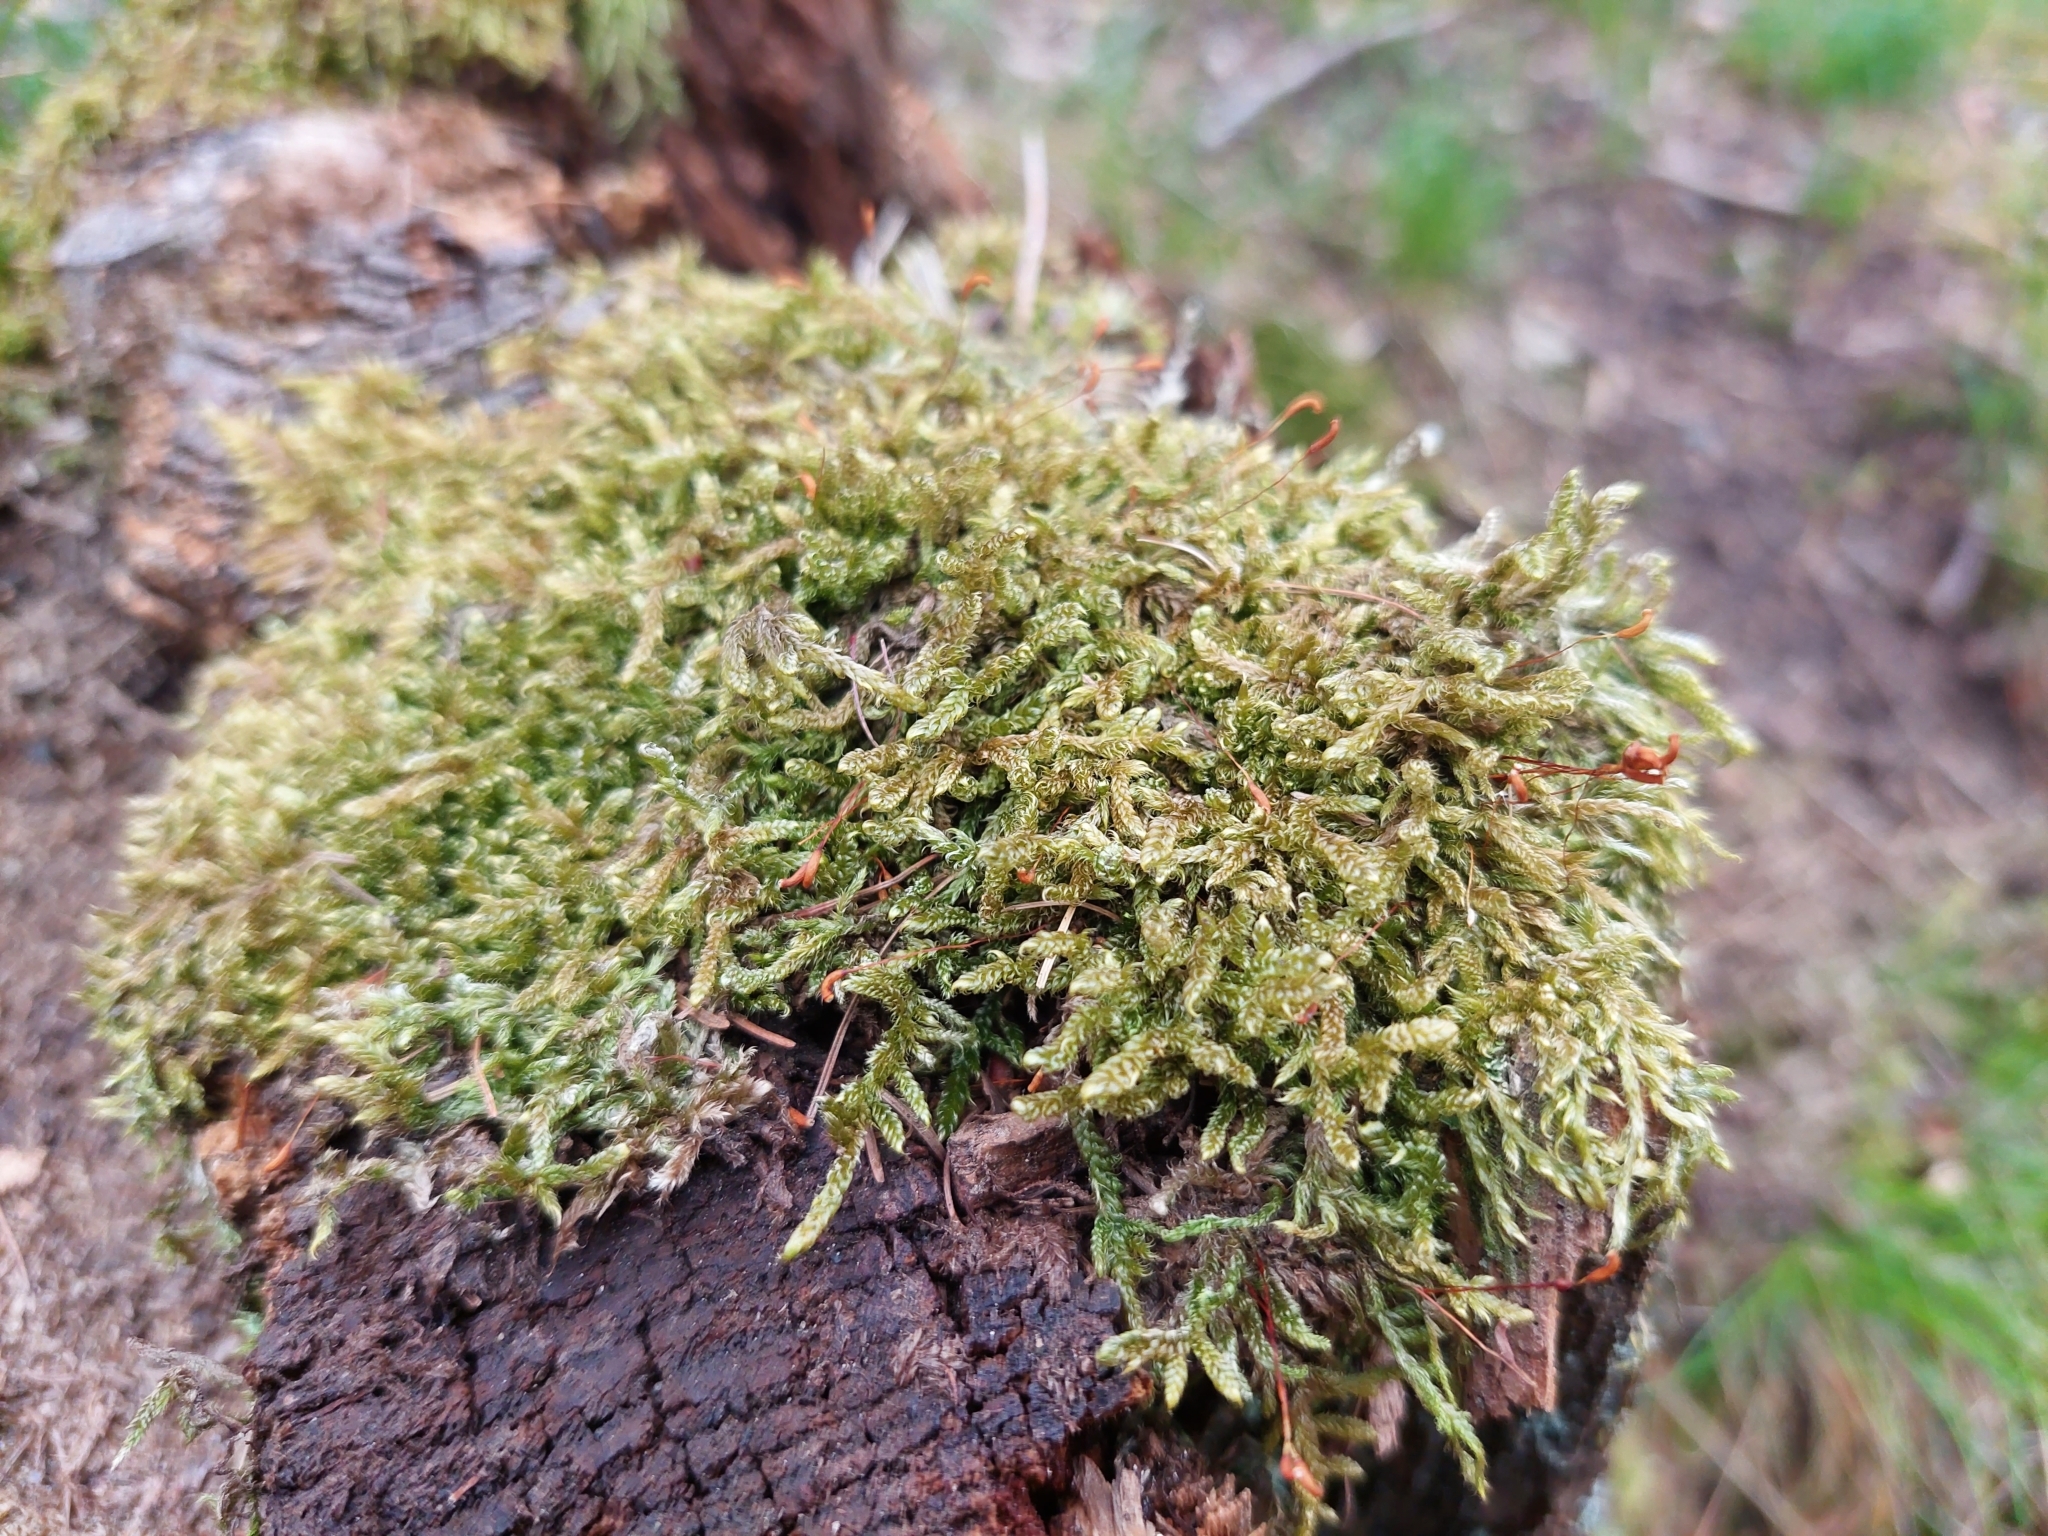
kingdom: Plantae
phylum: Bryophyta
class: Bryopsida
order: Hypnales
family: Hypnaceae
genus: Hypnum
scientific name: Hypnum cupressiforme
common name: Cypress-leaved plait-moss
